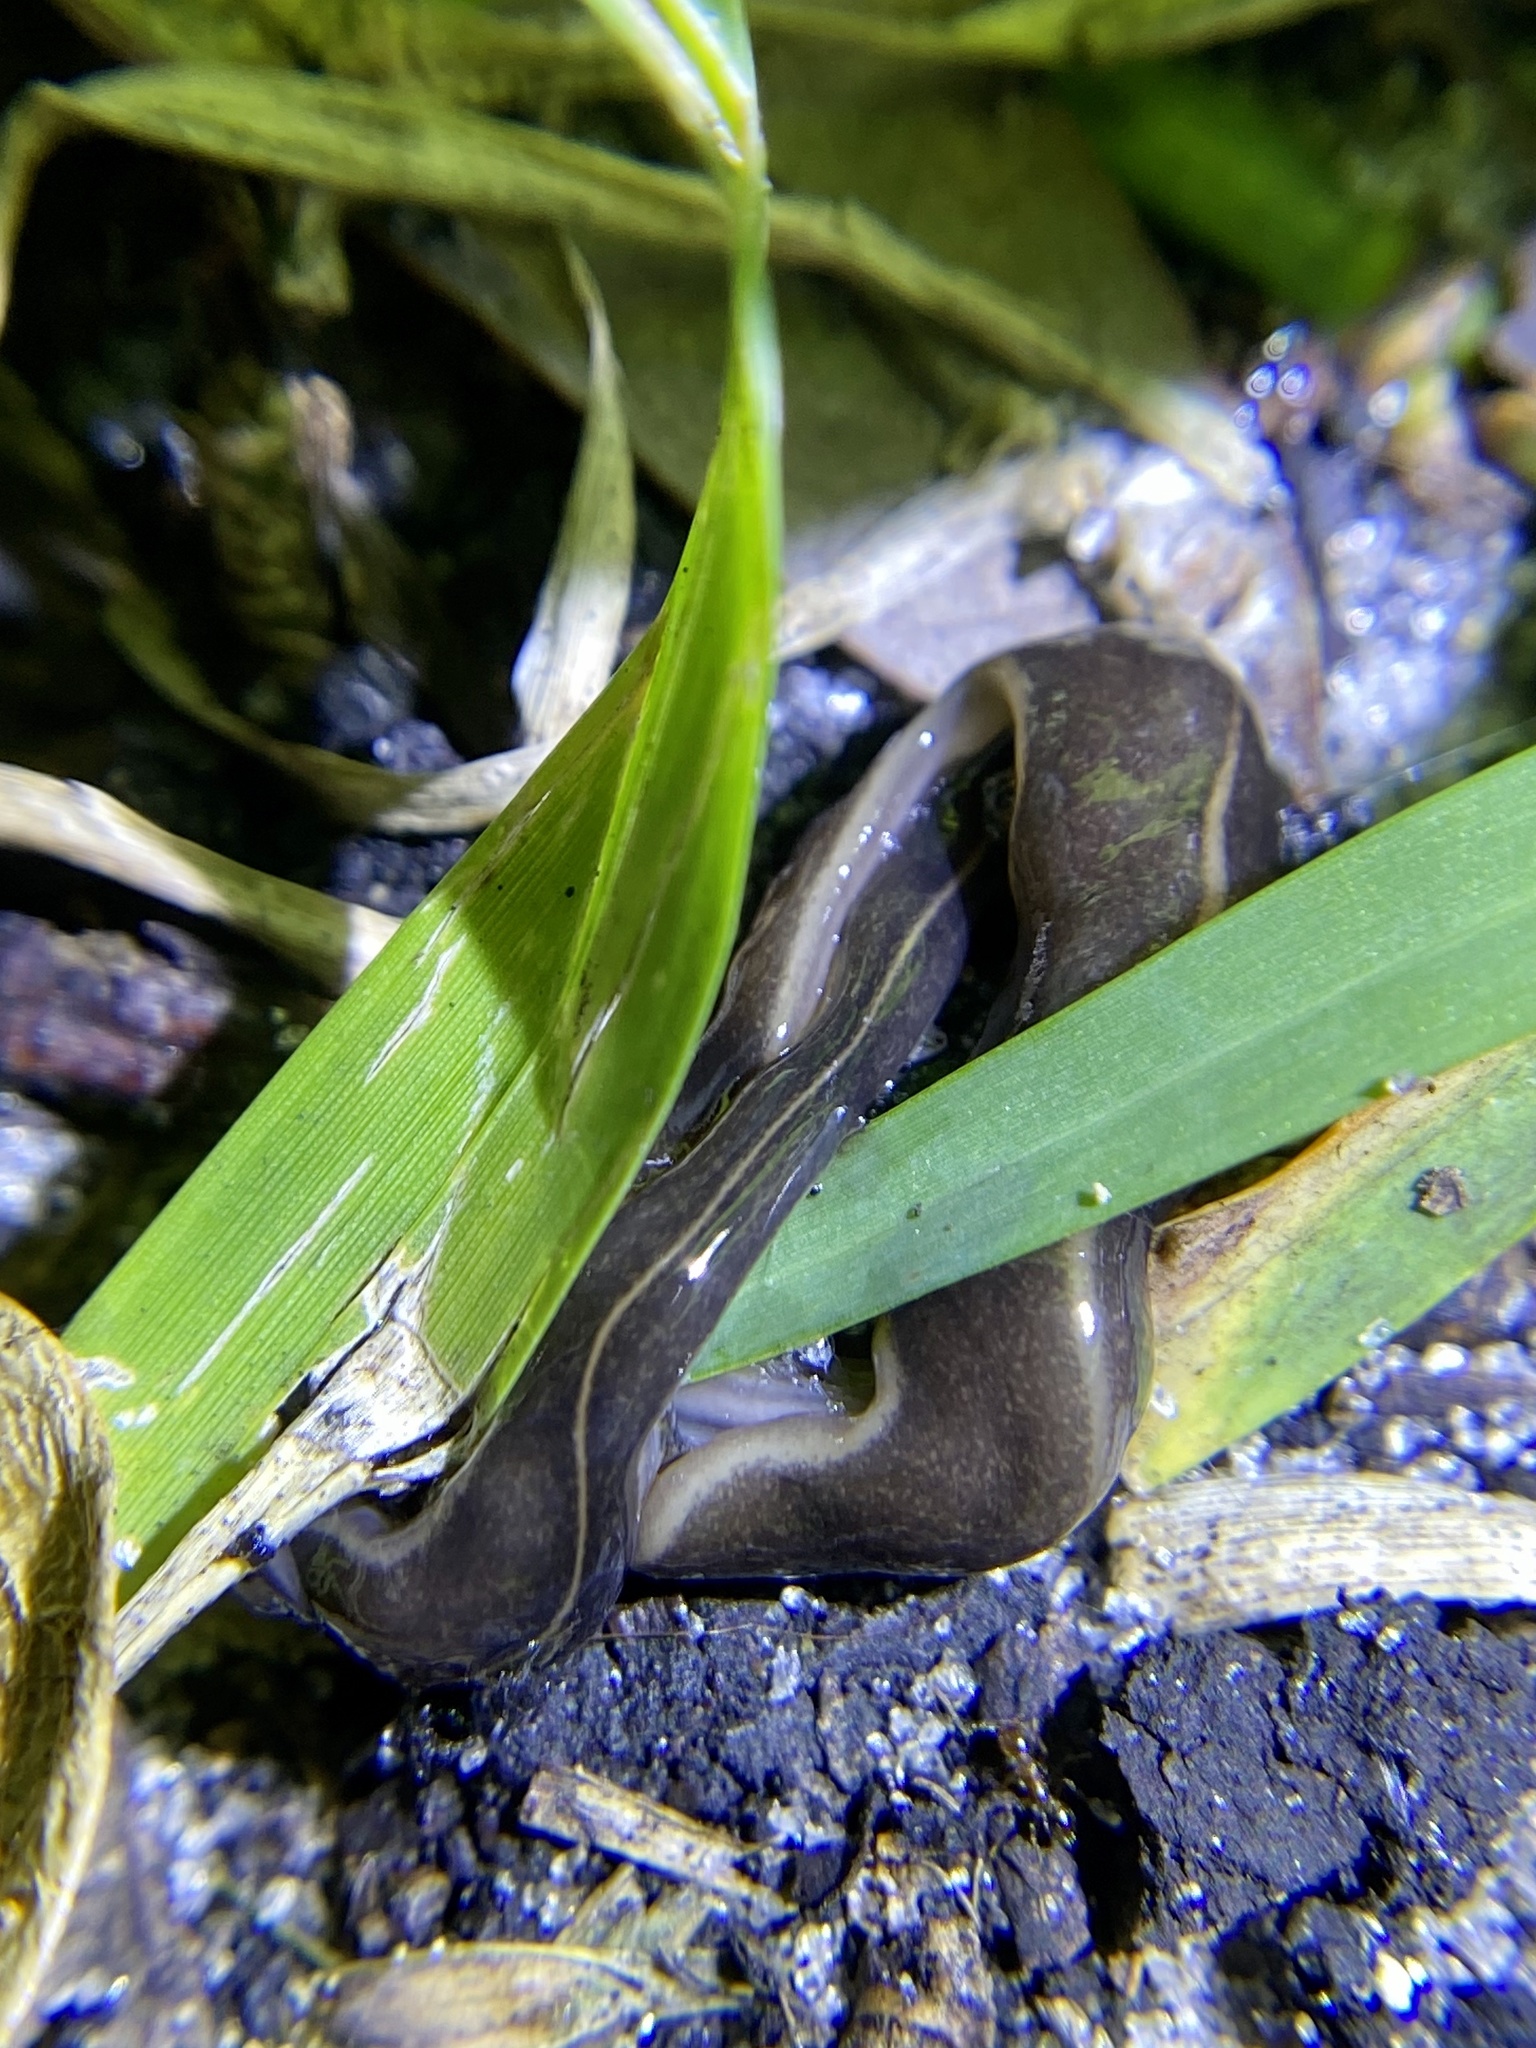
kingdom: Animalia
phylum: Platyhelminthes
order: Tricladida
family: Geoplanidae
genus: Platydemus
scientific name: Platydemus manokwari
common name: New guinea flatworm
